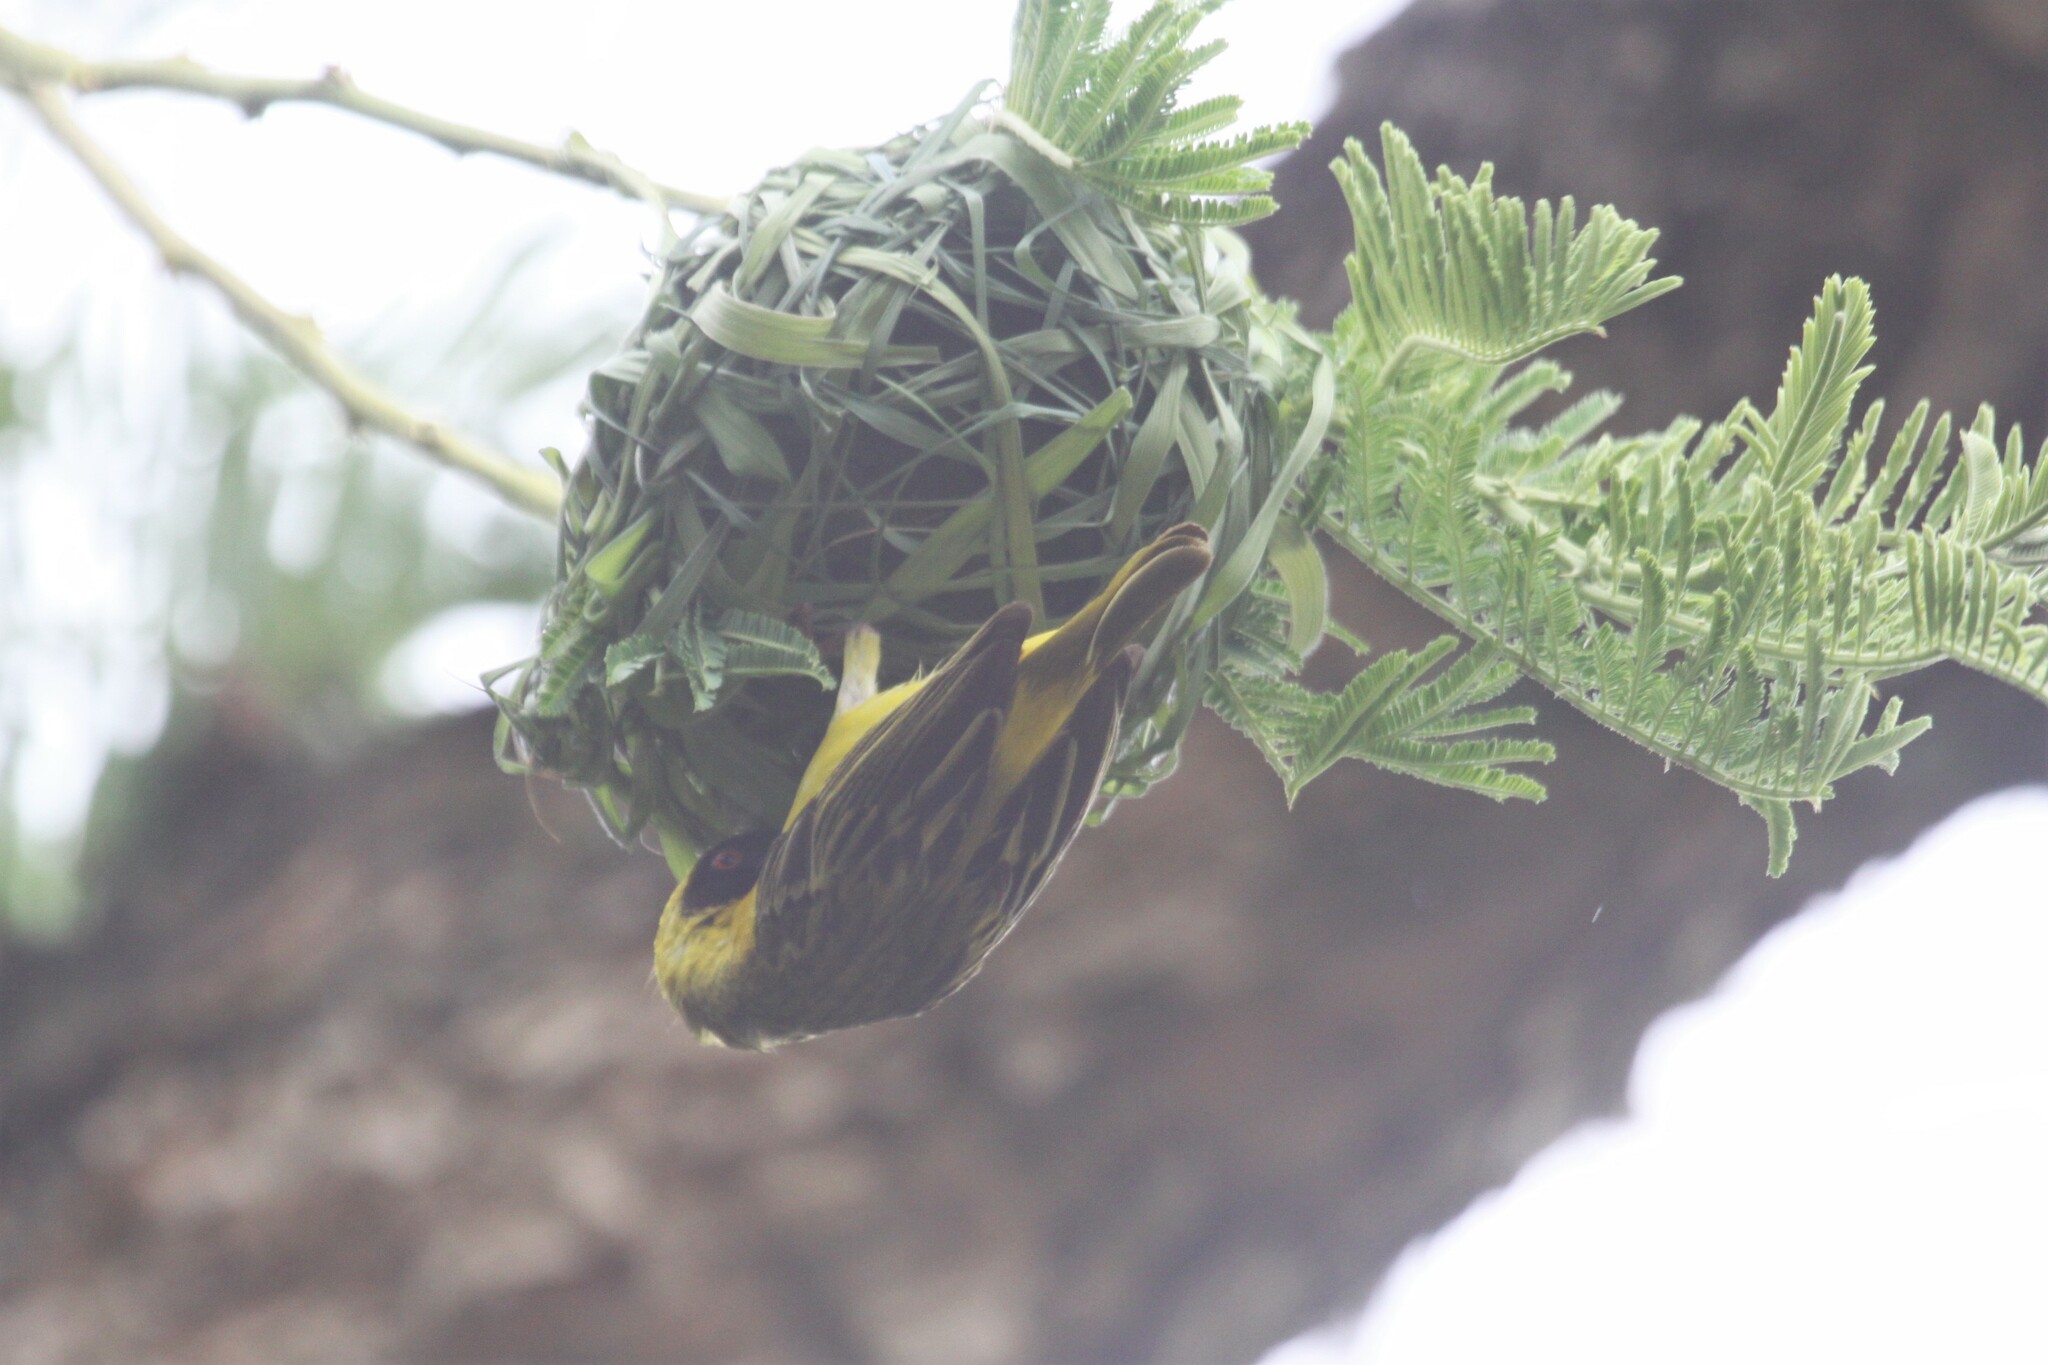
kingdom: Animalia
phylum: Chordata
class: Aves
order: Passeriformes
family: Ploceidae
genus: Ploceus
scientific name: Ploceus velatus
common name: Southern masked weaver
